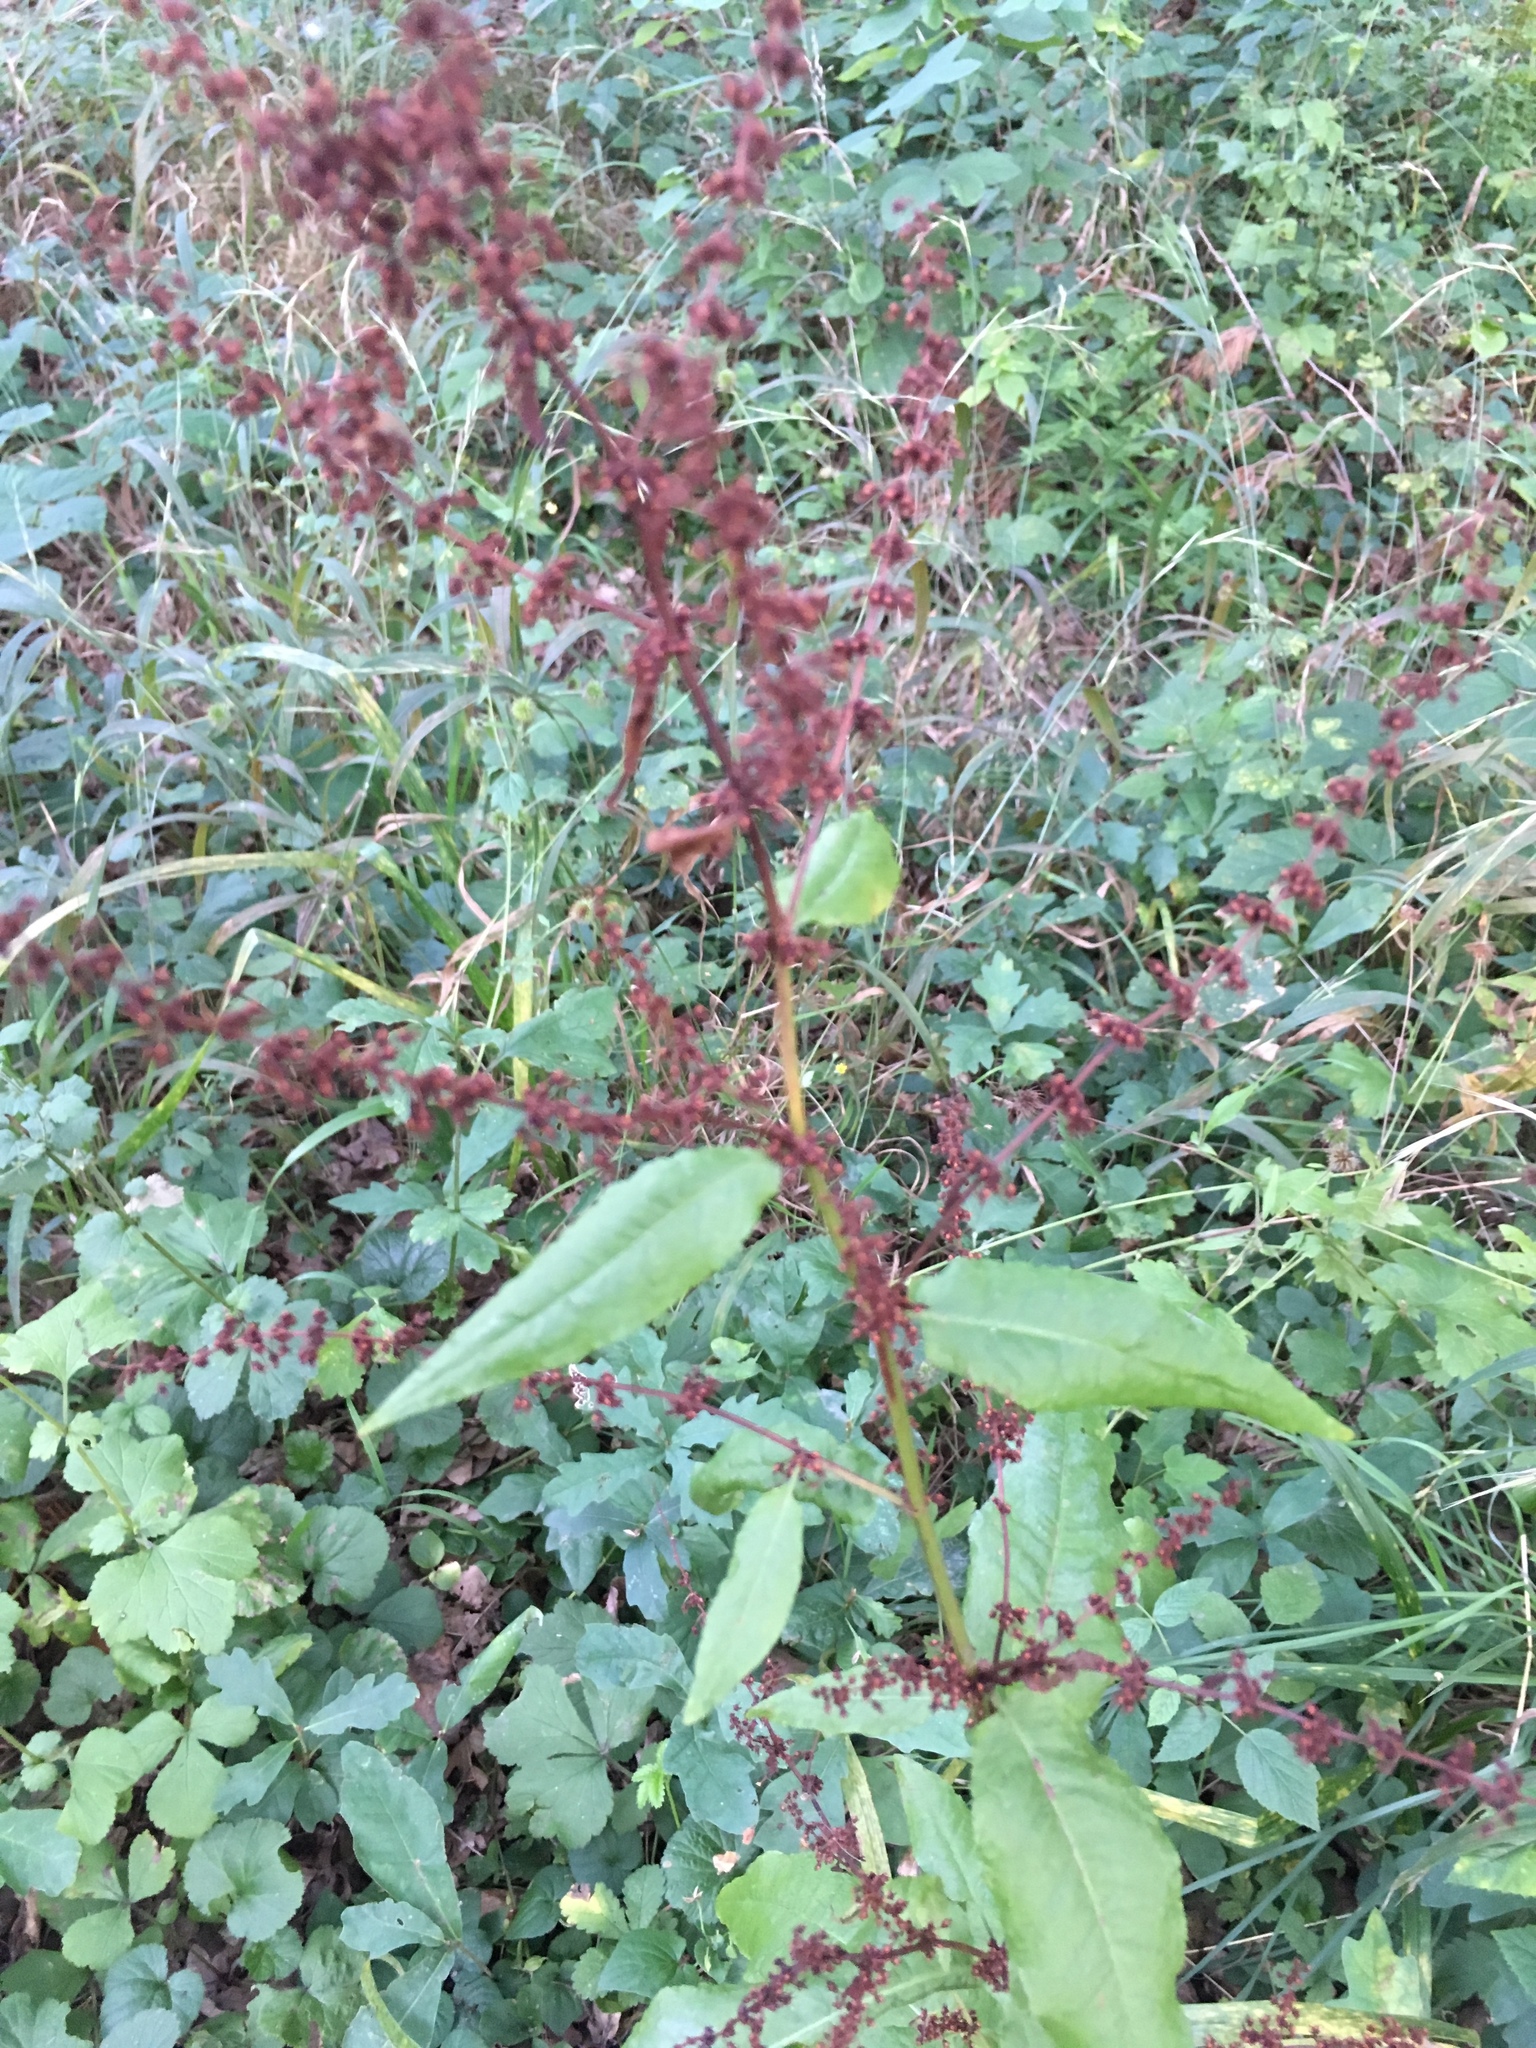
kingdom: Plantae
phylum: Tracheophyta
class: Magnoliopsida
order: Caryophyllales
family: Polygonaceae
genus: Rumex
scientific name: Rumex sanguineus
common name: Wood dock
